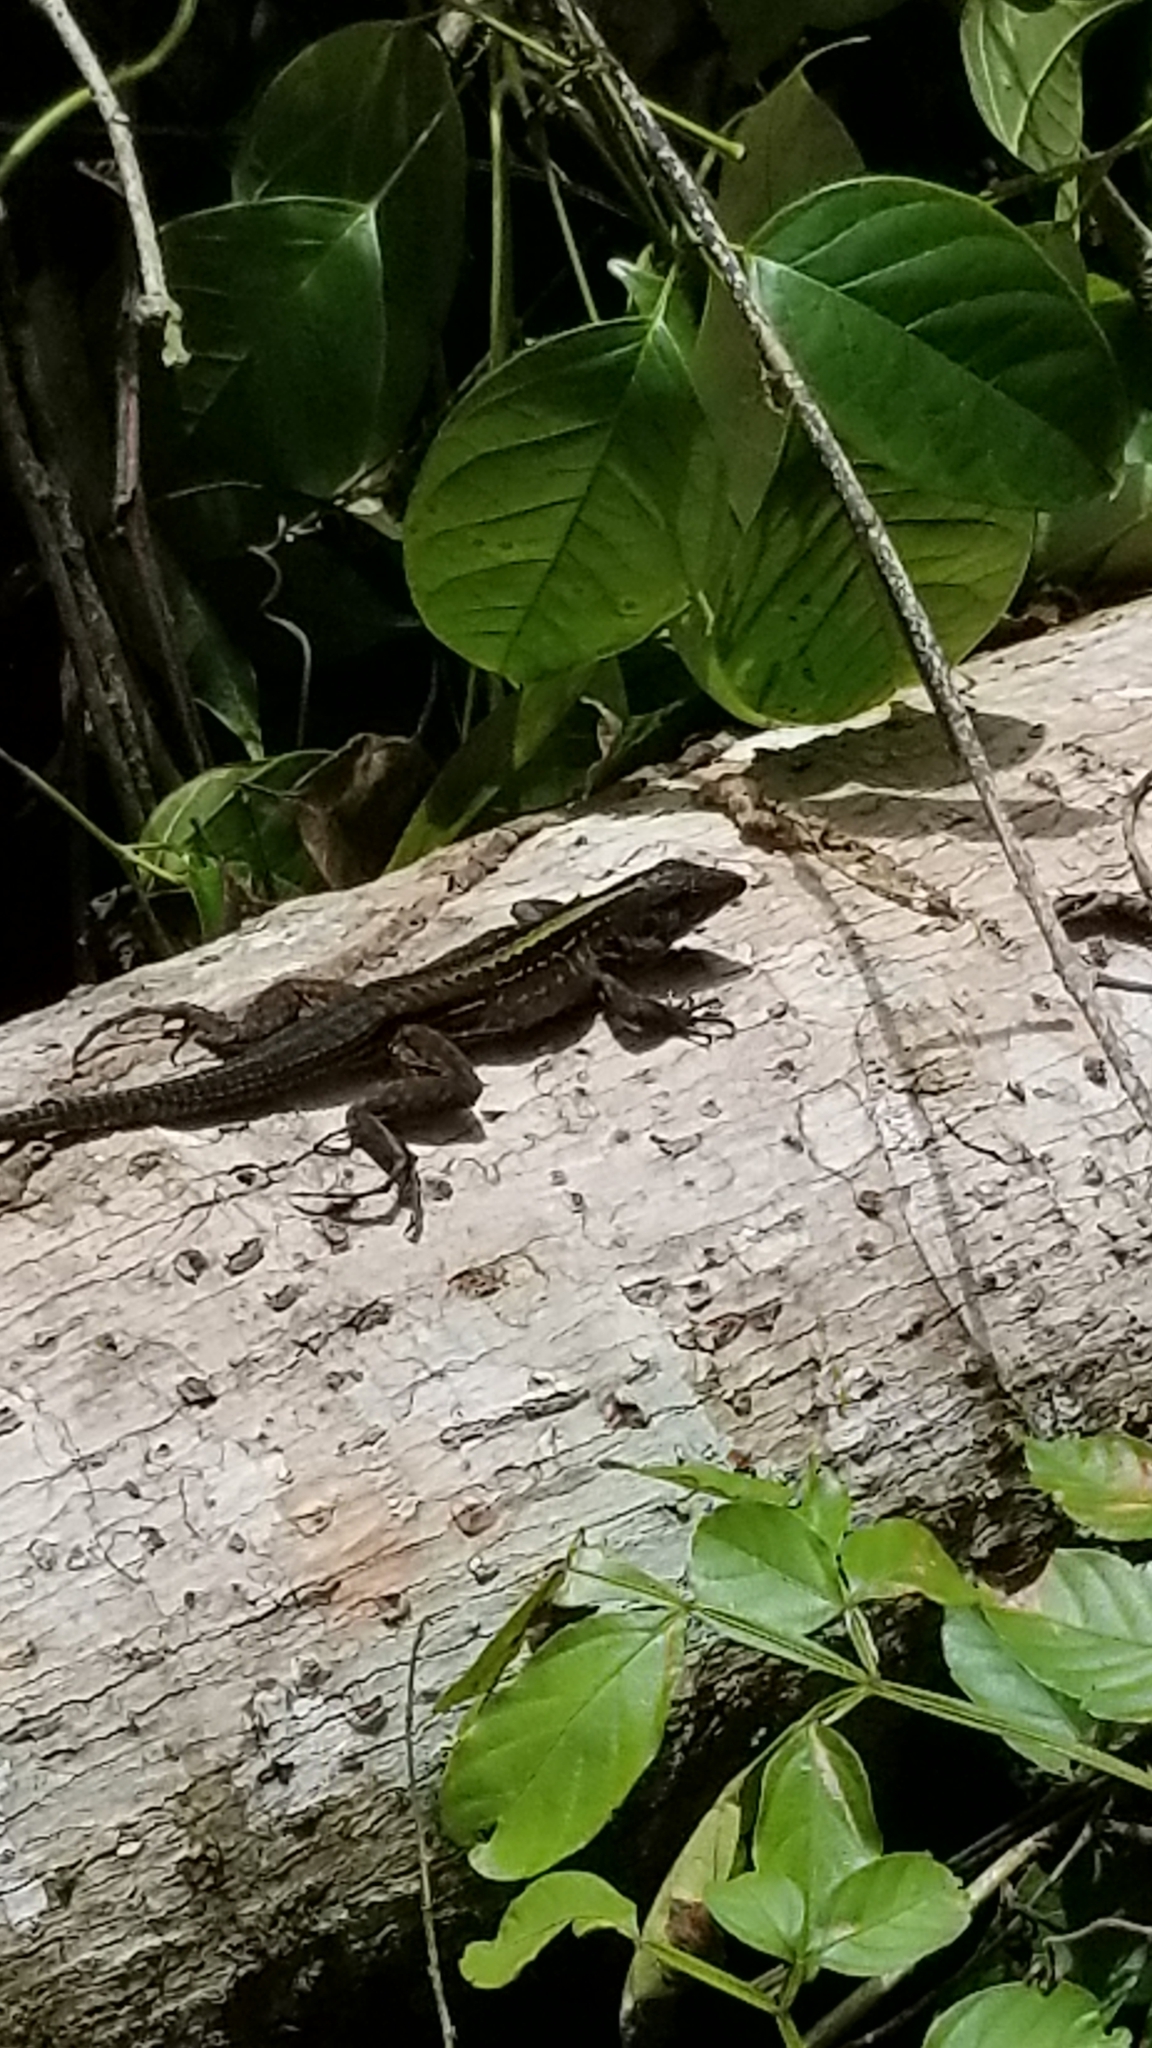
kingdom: Animalia
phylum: Chordata
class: Squamata
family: Teiidae
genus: Holcosus
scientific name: Holcosus festivus
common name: Middle american ameiva
